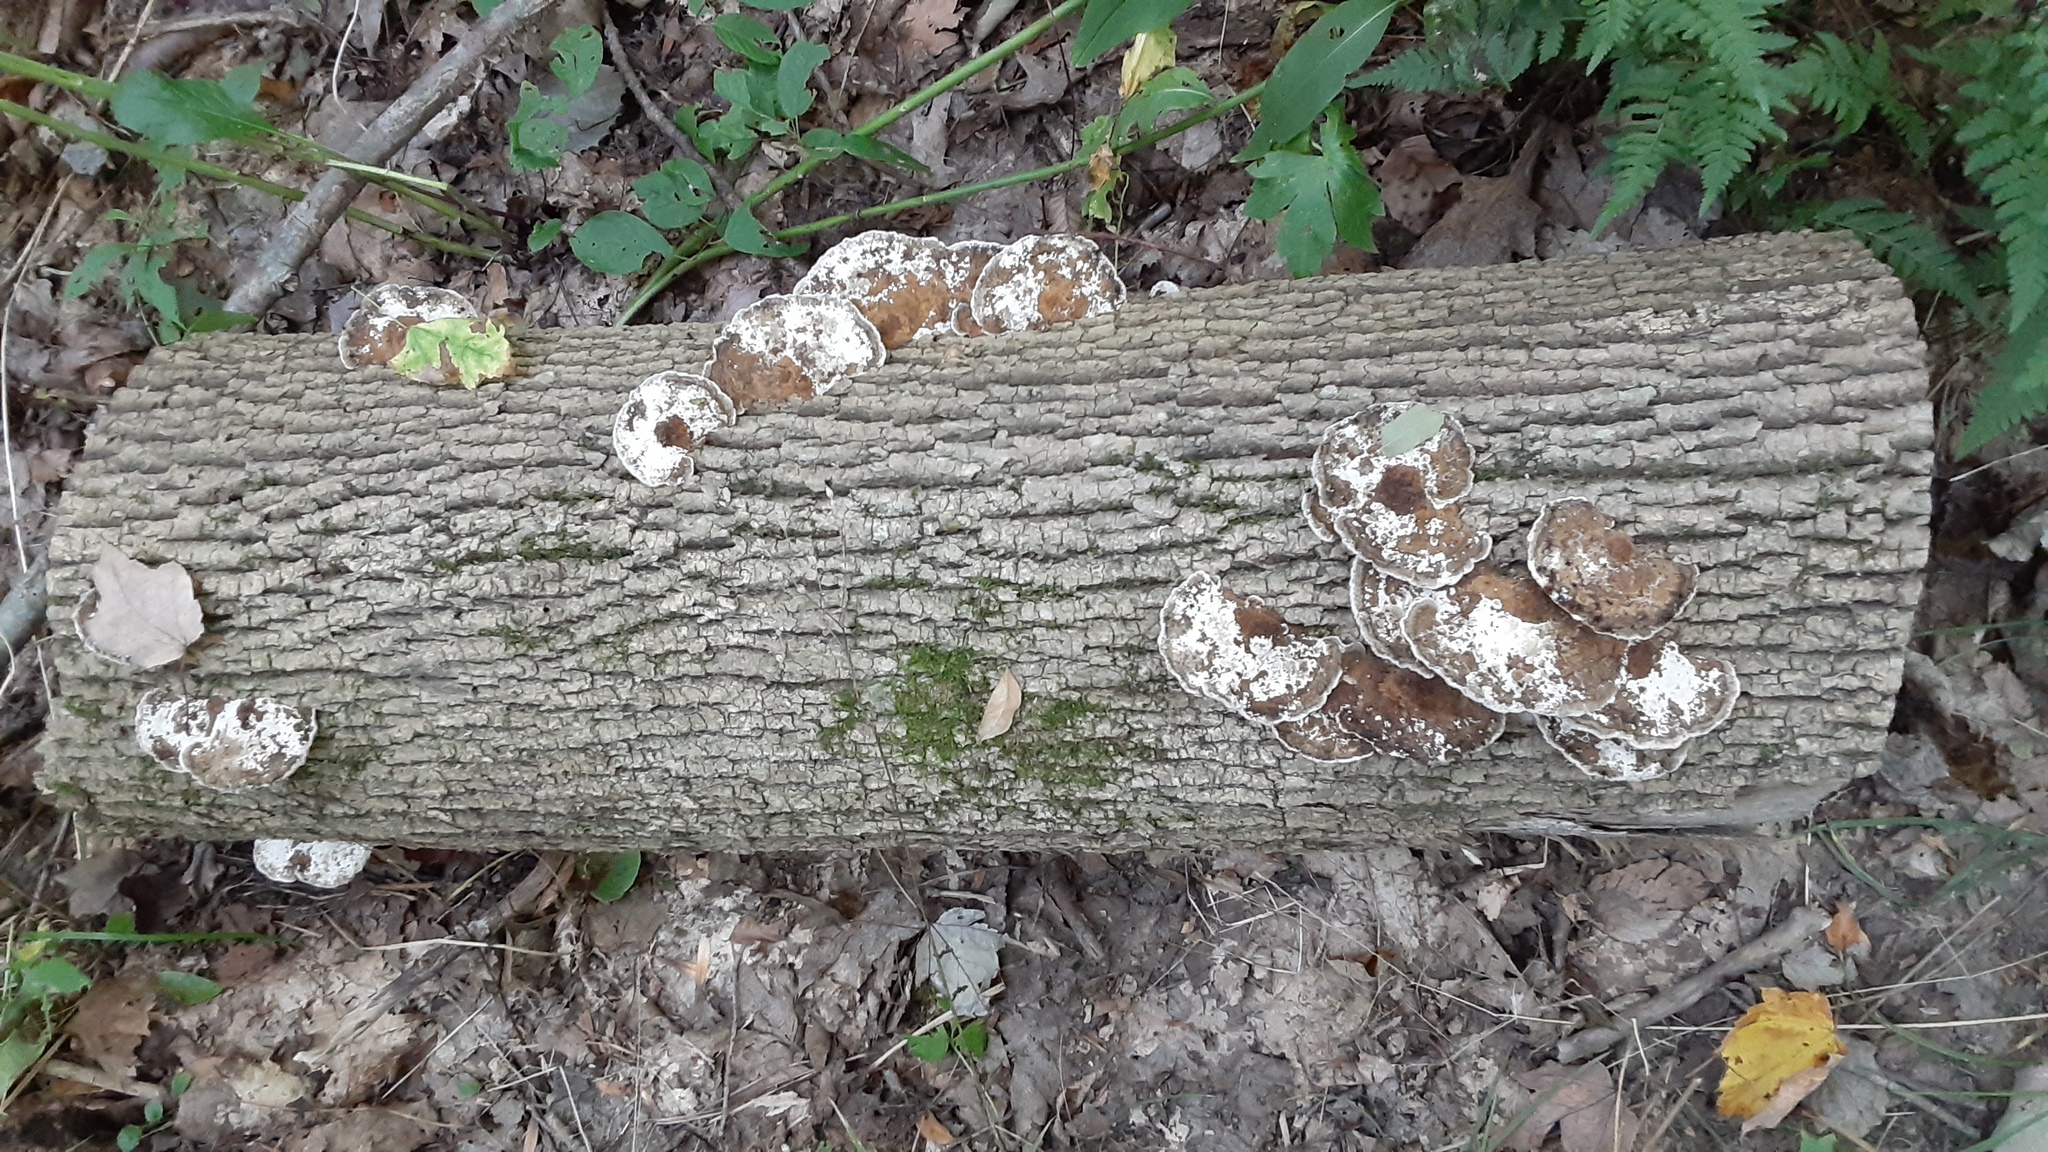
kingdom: Fungi
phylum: Basidiomycota
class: Agaricomycetes
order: Polyporales
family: Polyporaceae
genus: Daedaleopsis
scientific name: Daedaleopsis confragosa
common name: Blushing bracket
